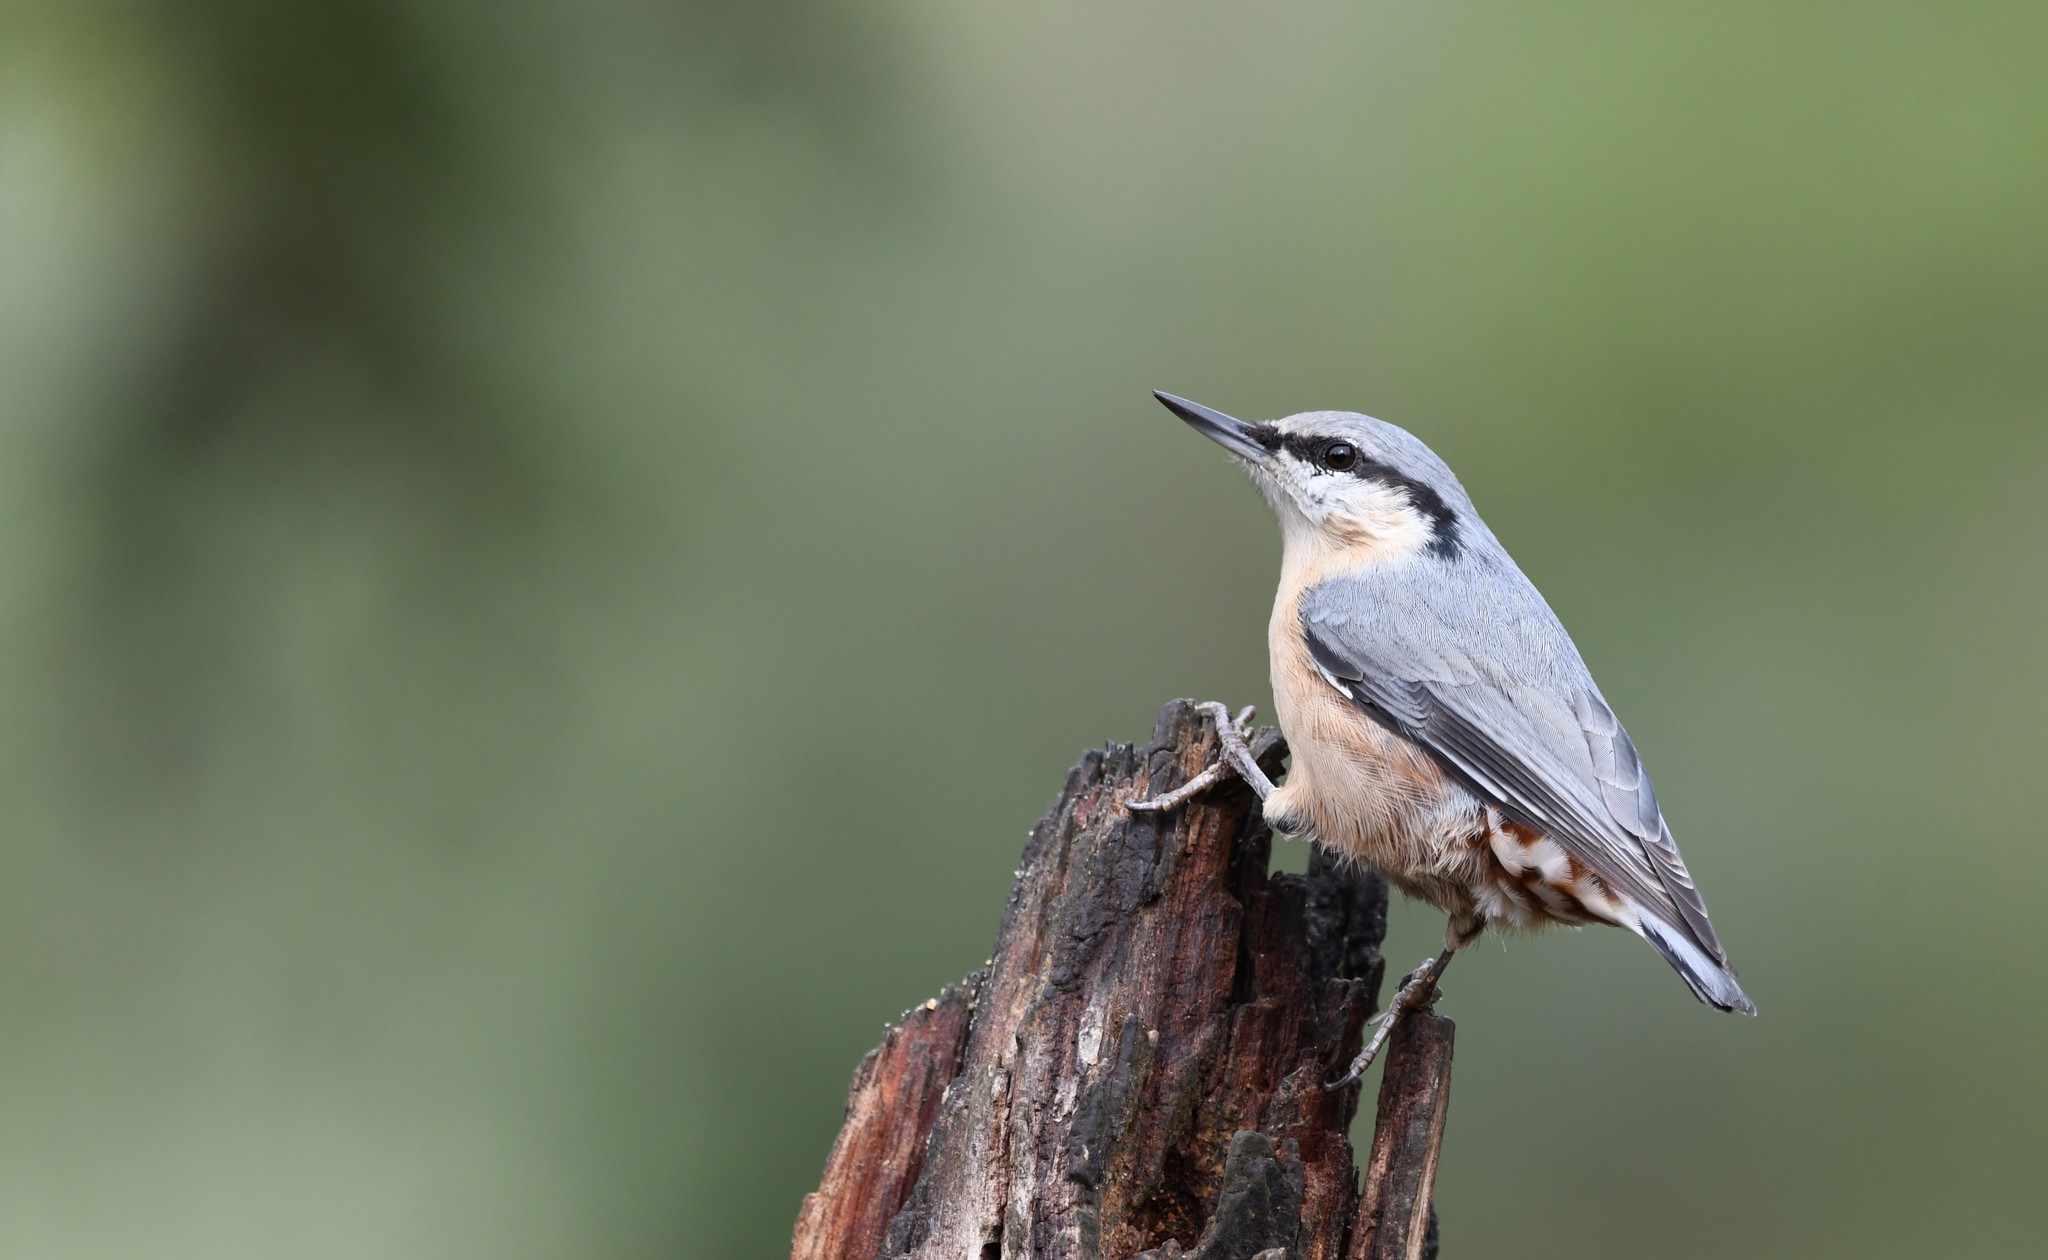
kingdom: Animalia
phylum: Chordata
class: Aves
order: Passeriformes
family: Sittidae
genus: Sitta
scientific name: Sitta europaea
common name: Eurasian nuthatch
